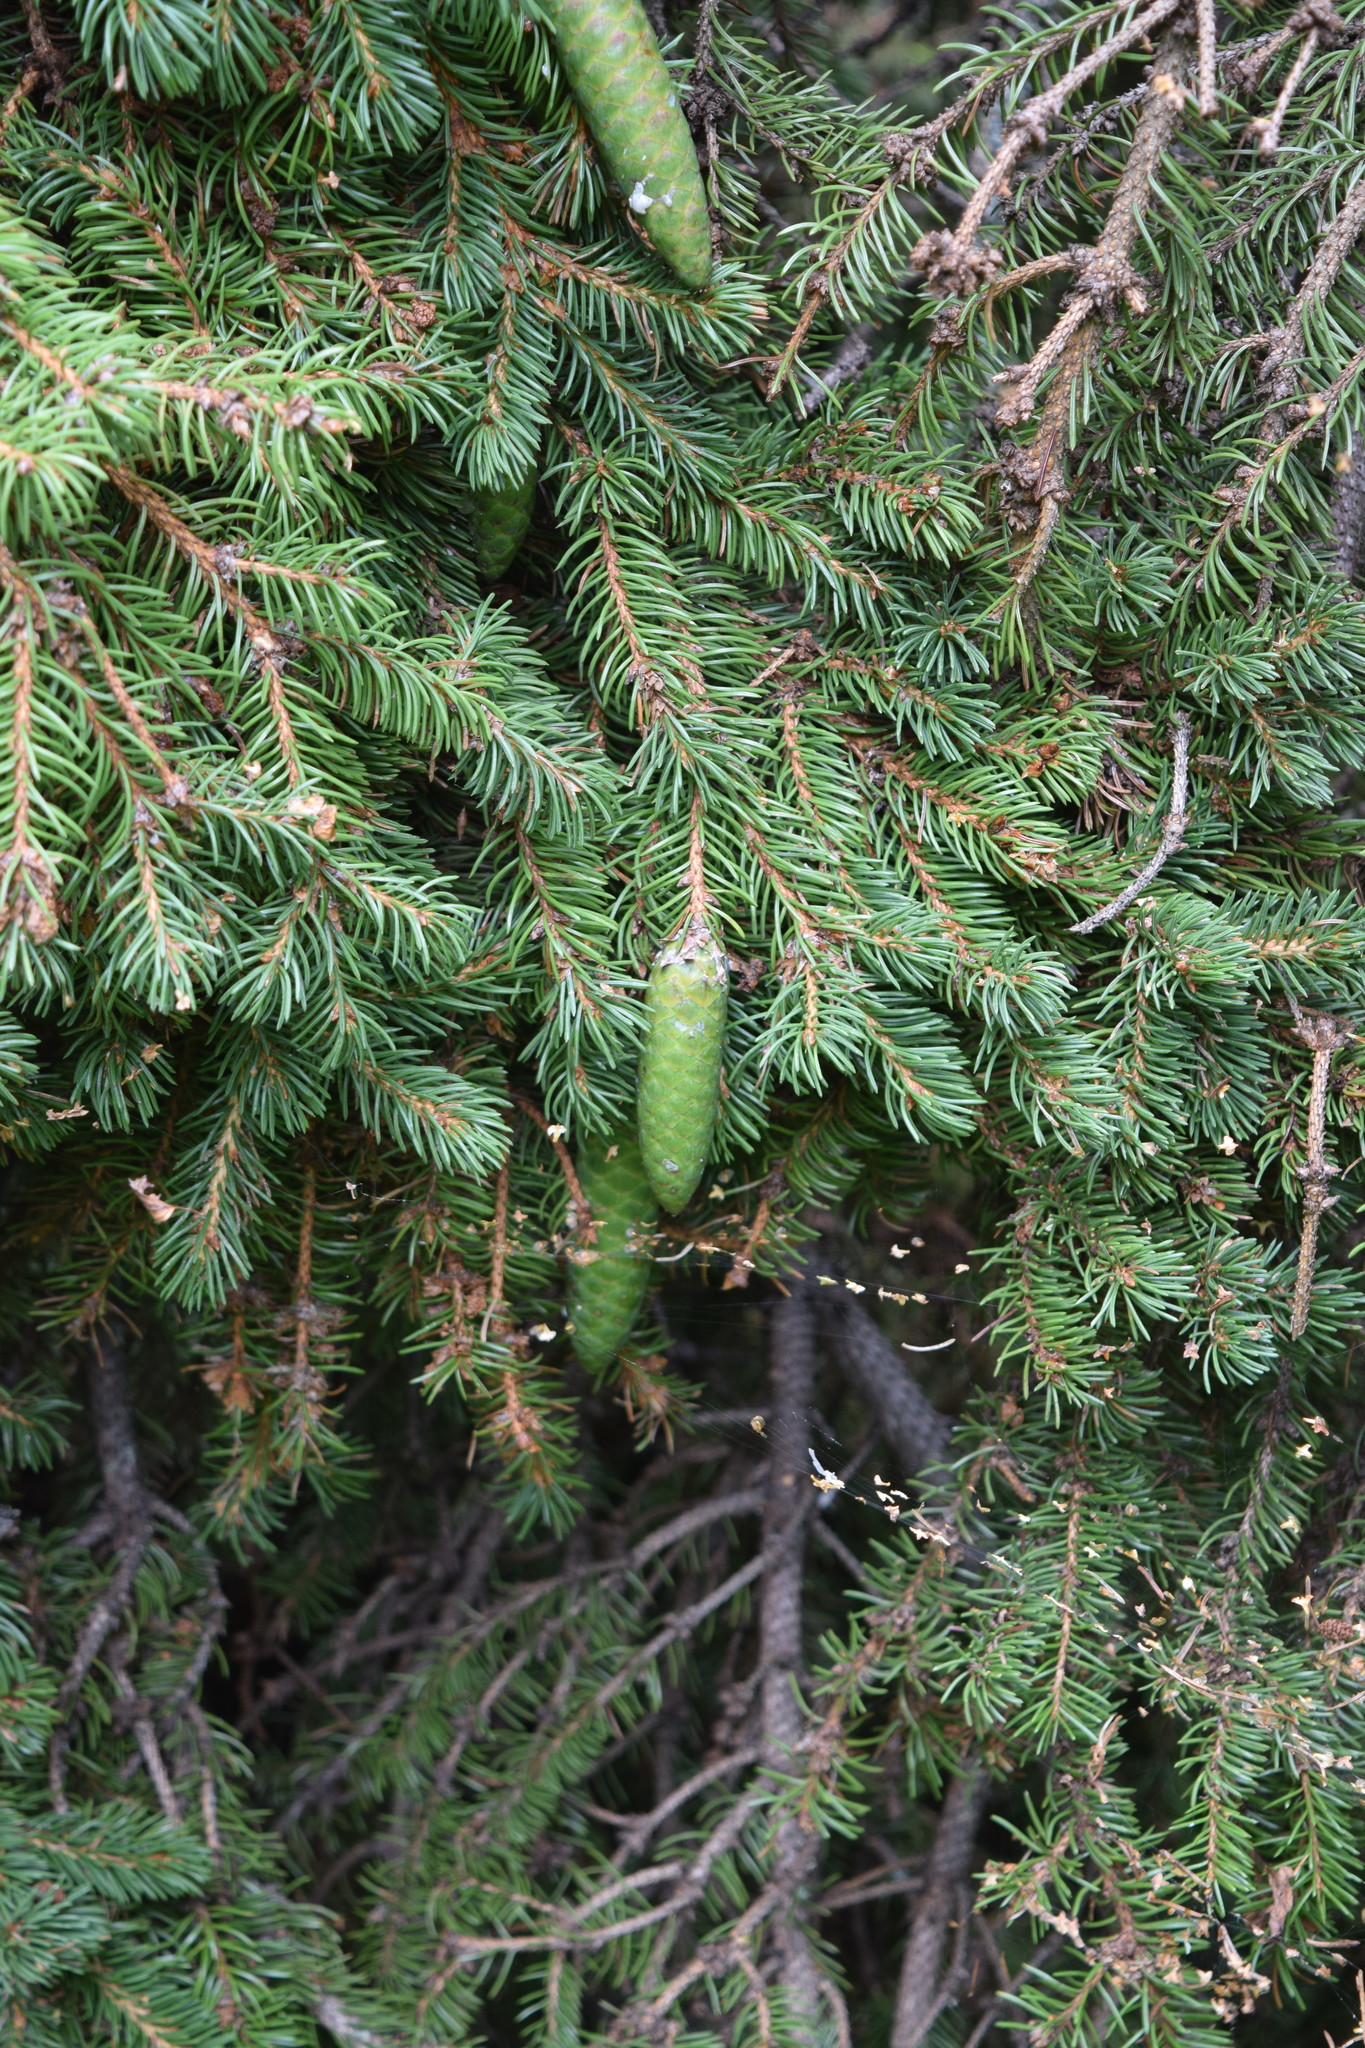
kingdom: Plantae
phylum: Tracheophyta
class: Pinopsida
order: Pinales
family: Pinaceae
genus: Picea
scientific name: Picea abies
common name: Norway spruce
